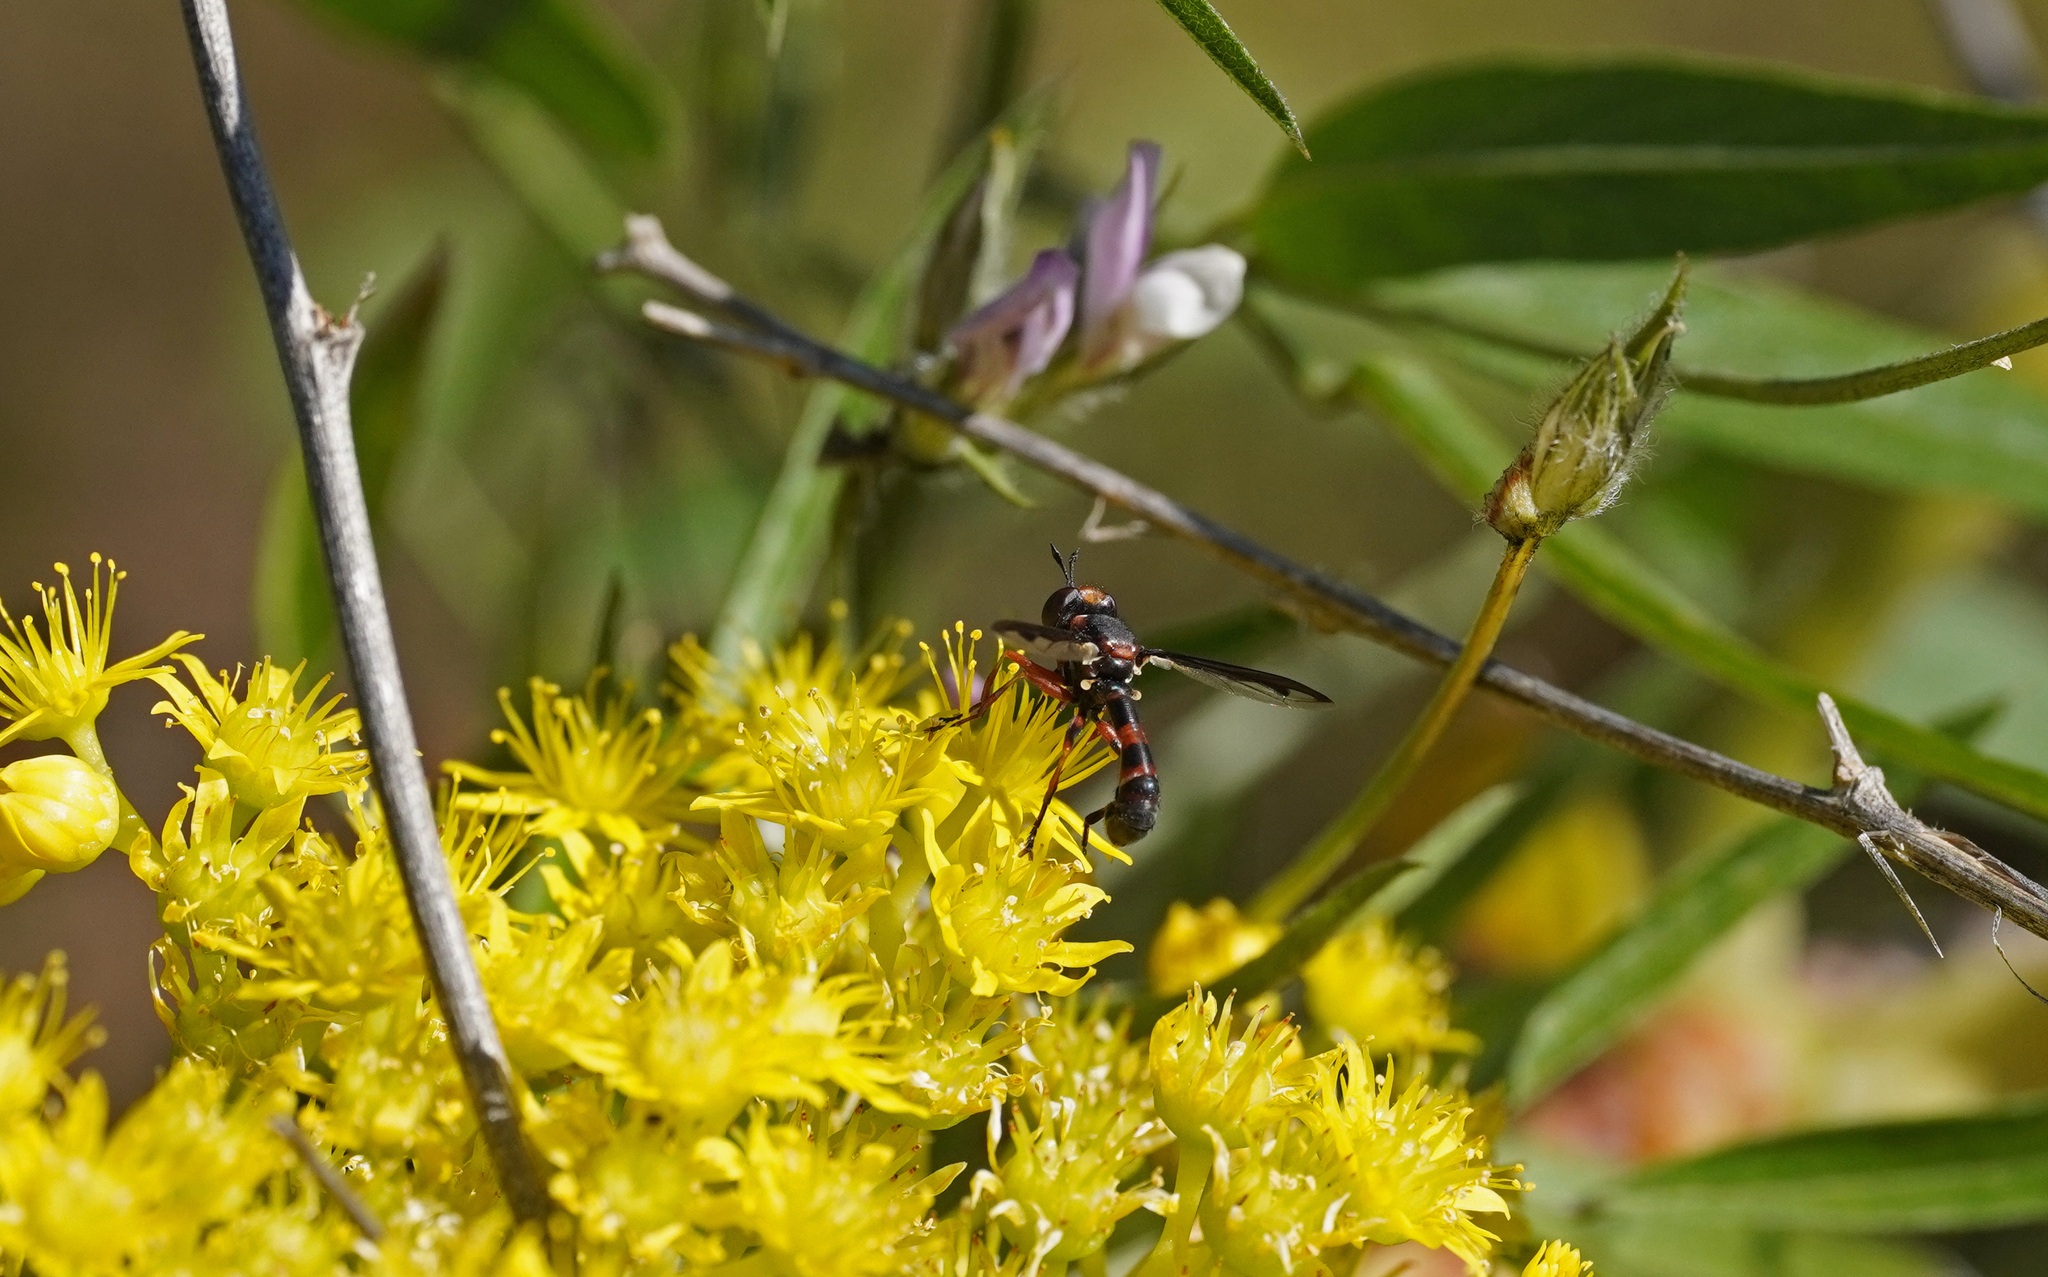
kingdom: Animalia
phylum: Arthropoda
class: Insecta
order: Diptera
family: Conopidae
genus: Physocephala
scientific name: Physocephala biguttata
